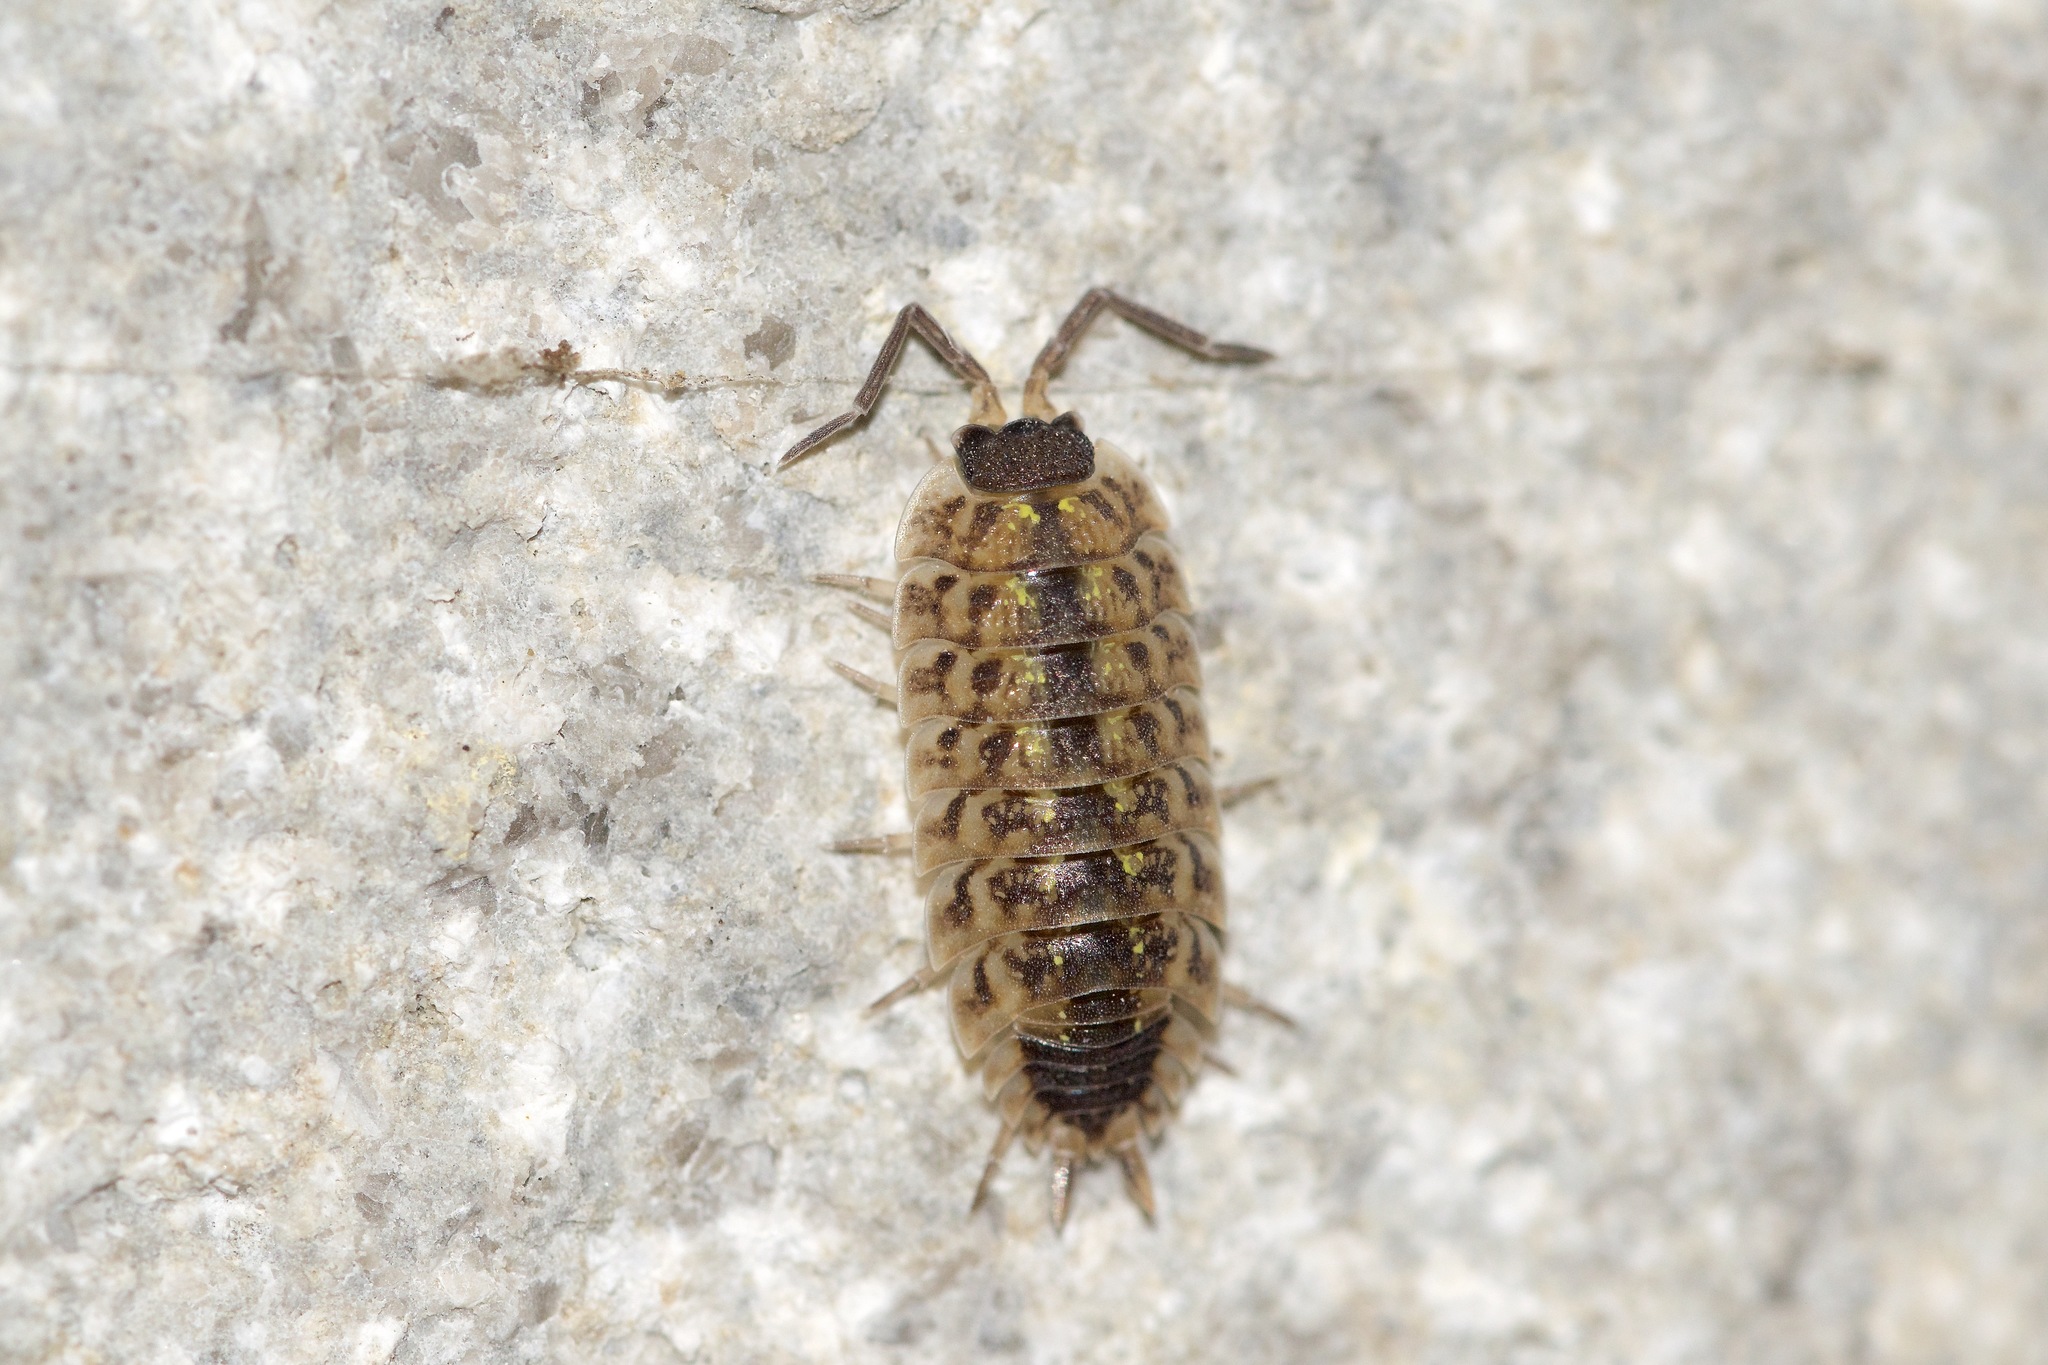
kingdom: Animalia
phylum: Arthropoda
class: Malacostraca
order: Isopoda
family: Porcellionidae
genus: Porcellio
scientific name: Porcellio spinicornis
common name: Painted woodlouse
